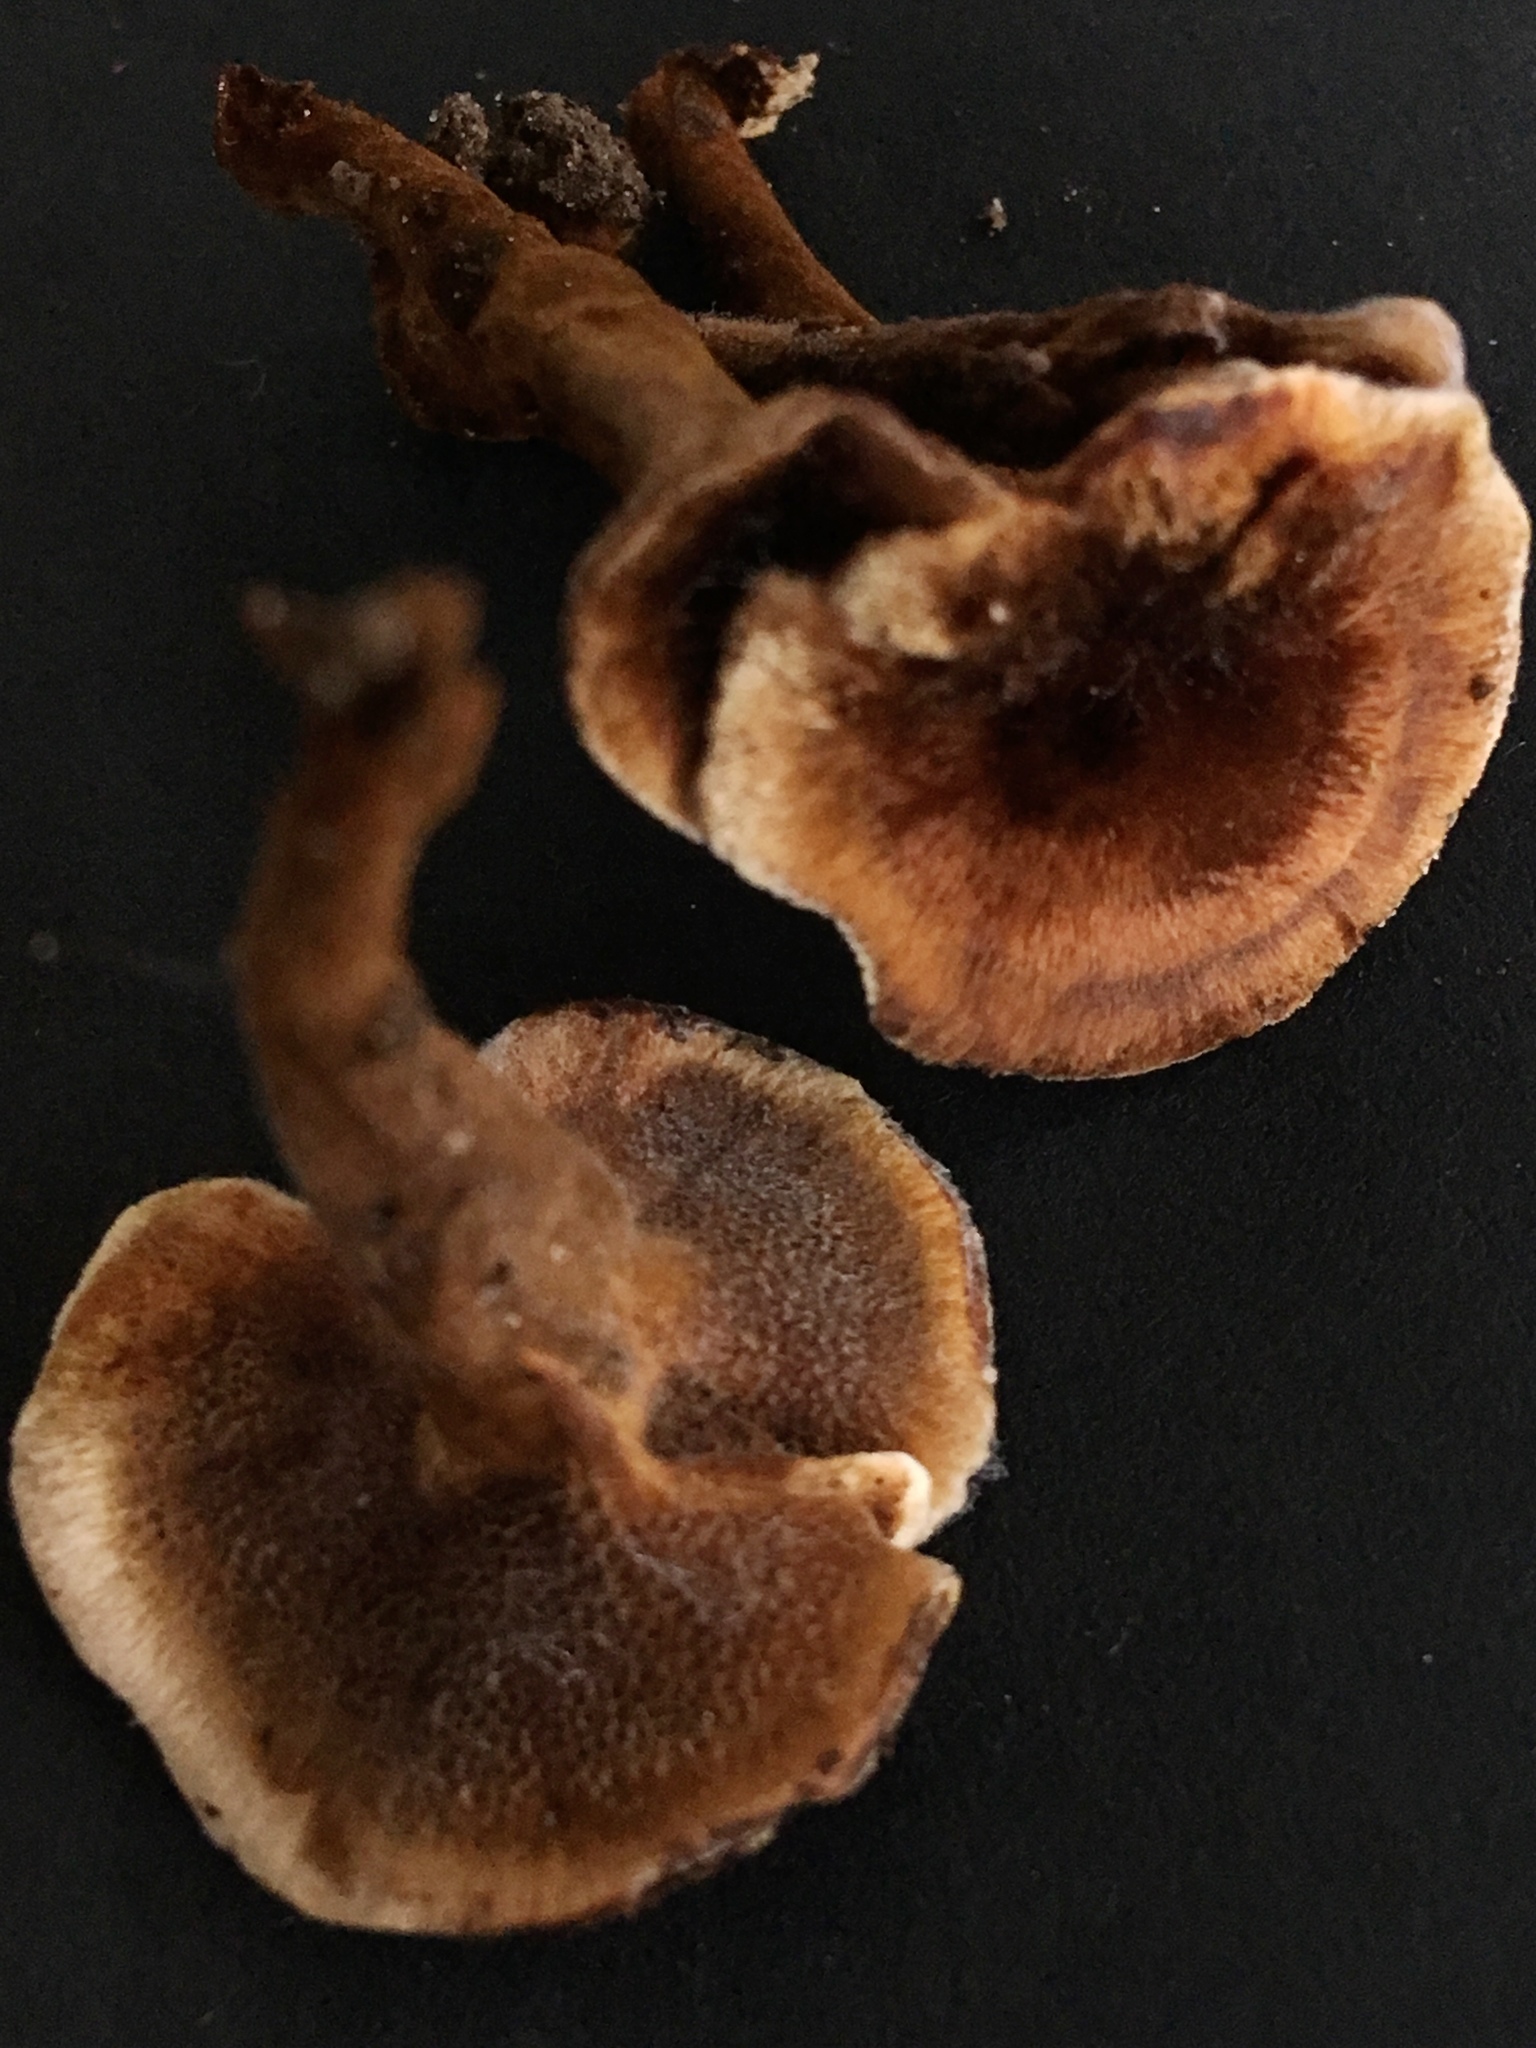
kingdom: Fungi
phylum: Basidiomycota
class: Agaricomycetes
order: Hymenochaetales
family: Hymenochaetaceae
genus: Coltricia
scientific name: Coltricia perennis
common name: Tiger's eye
